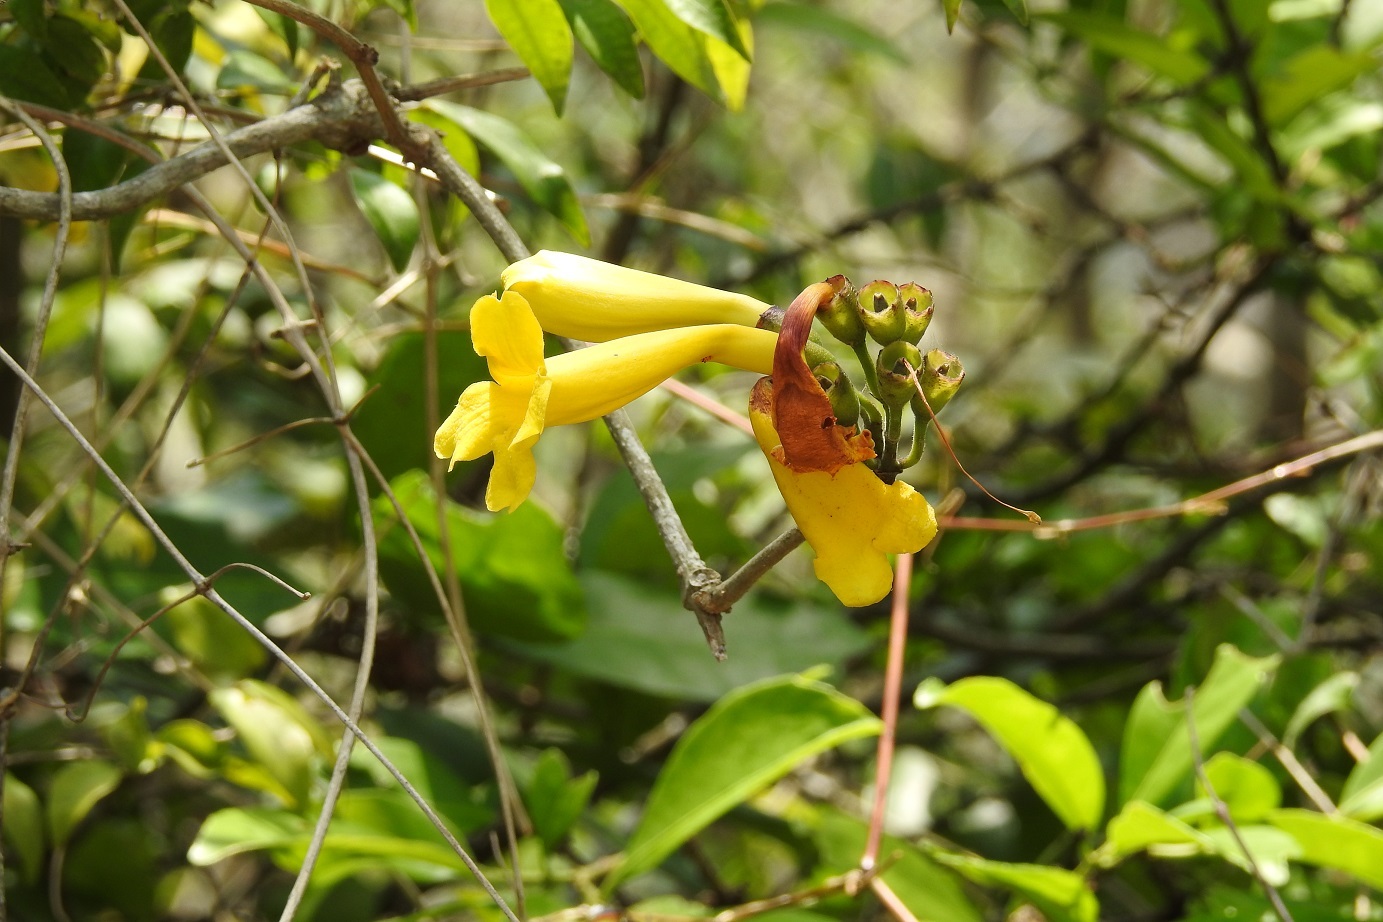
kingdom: Plantae
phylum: Tracheophyta
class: Magnoliopsida
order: Lamiales
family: Bignoniaceae
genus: Anemopaegma
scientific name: Anemopaegma chrysanthum
